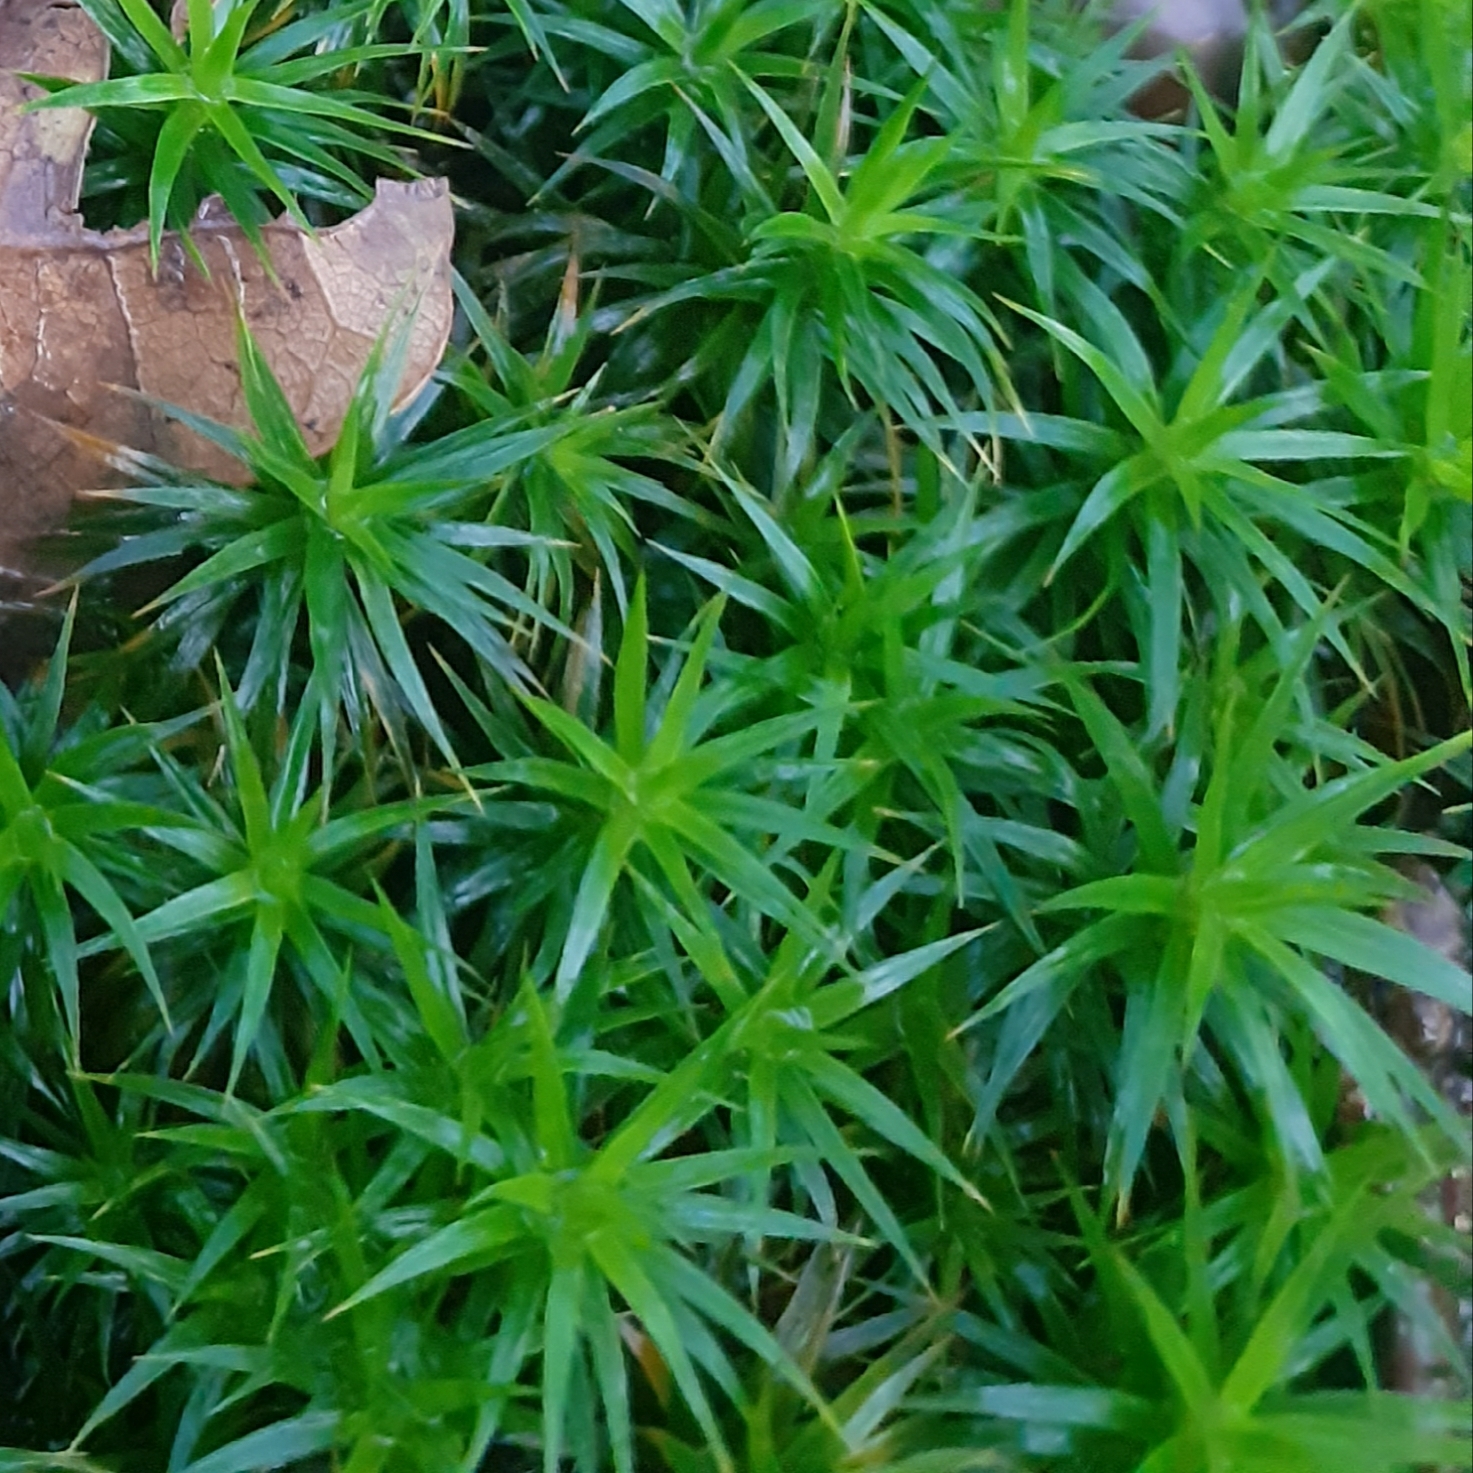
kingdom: Plantae
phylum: Bryophyta
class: Polytrichopsida
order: Polytrichales
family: Polytrichaceae
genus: Polytrichum
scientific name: Polytrichum formosum
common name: Bank haircap moss
